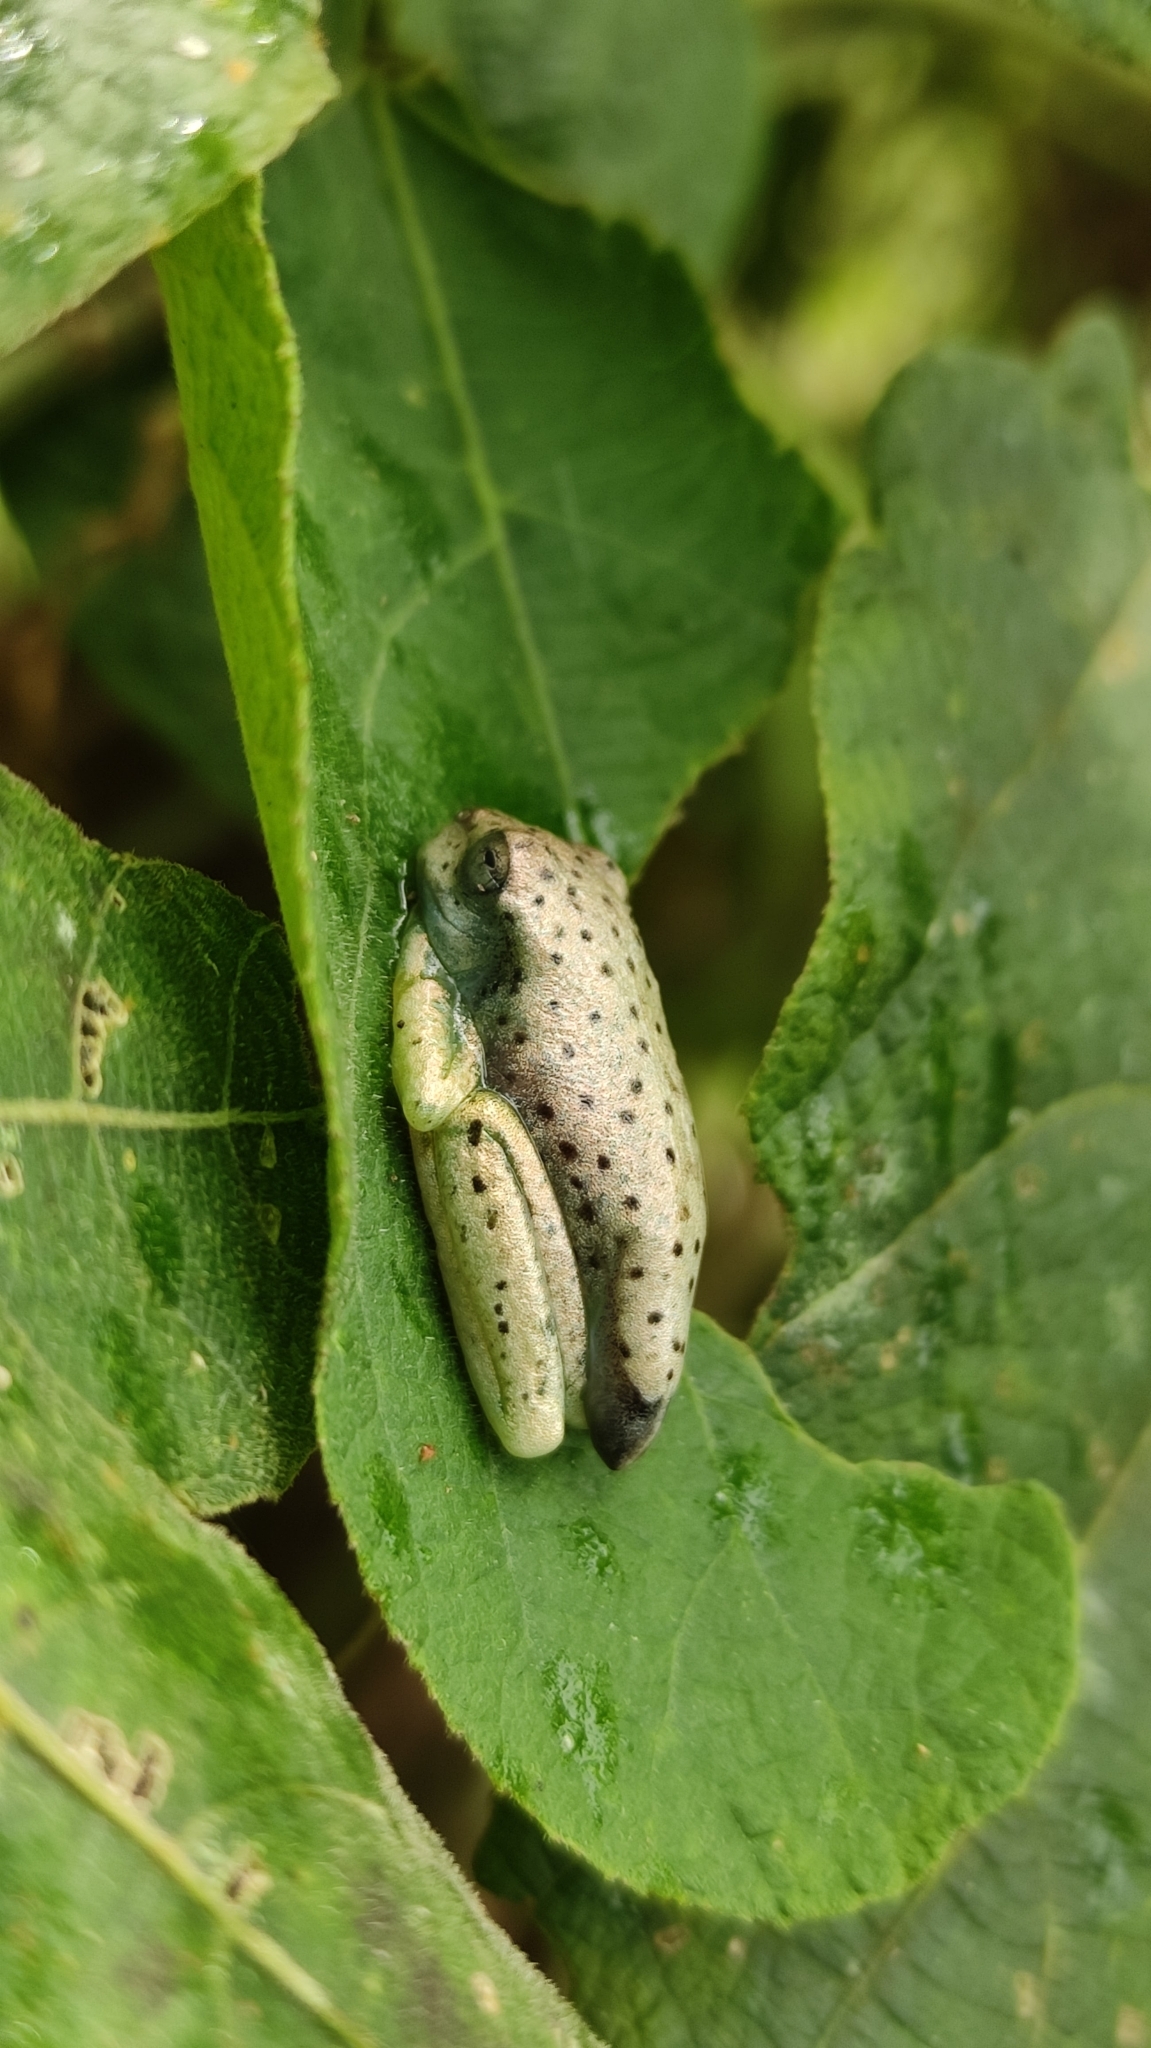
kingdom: Animalia
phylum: Chordata
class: Amphibia
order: Anura
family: Hylidae
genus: Boana
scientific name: Boana rosenbergi
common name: Rosenberg´s gladiator treefrog
